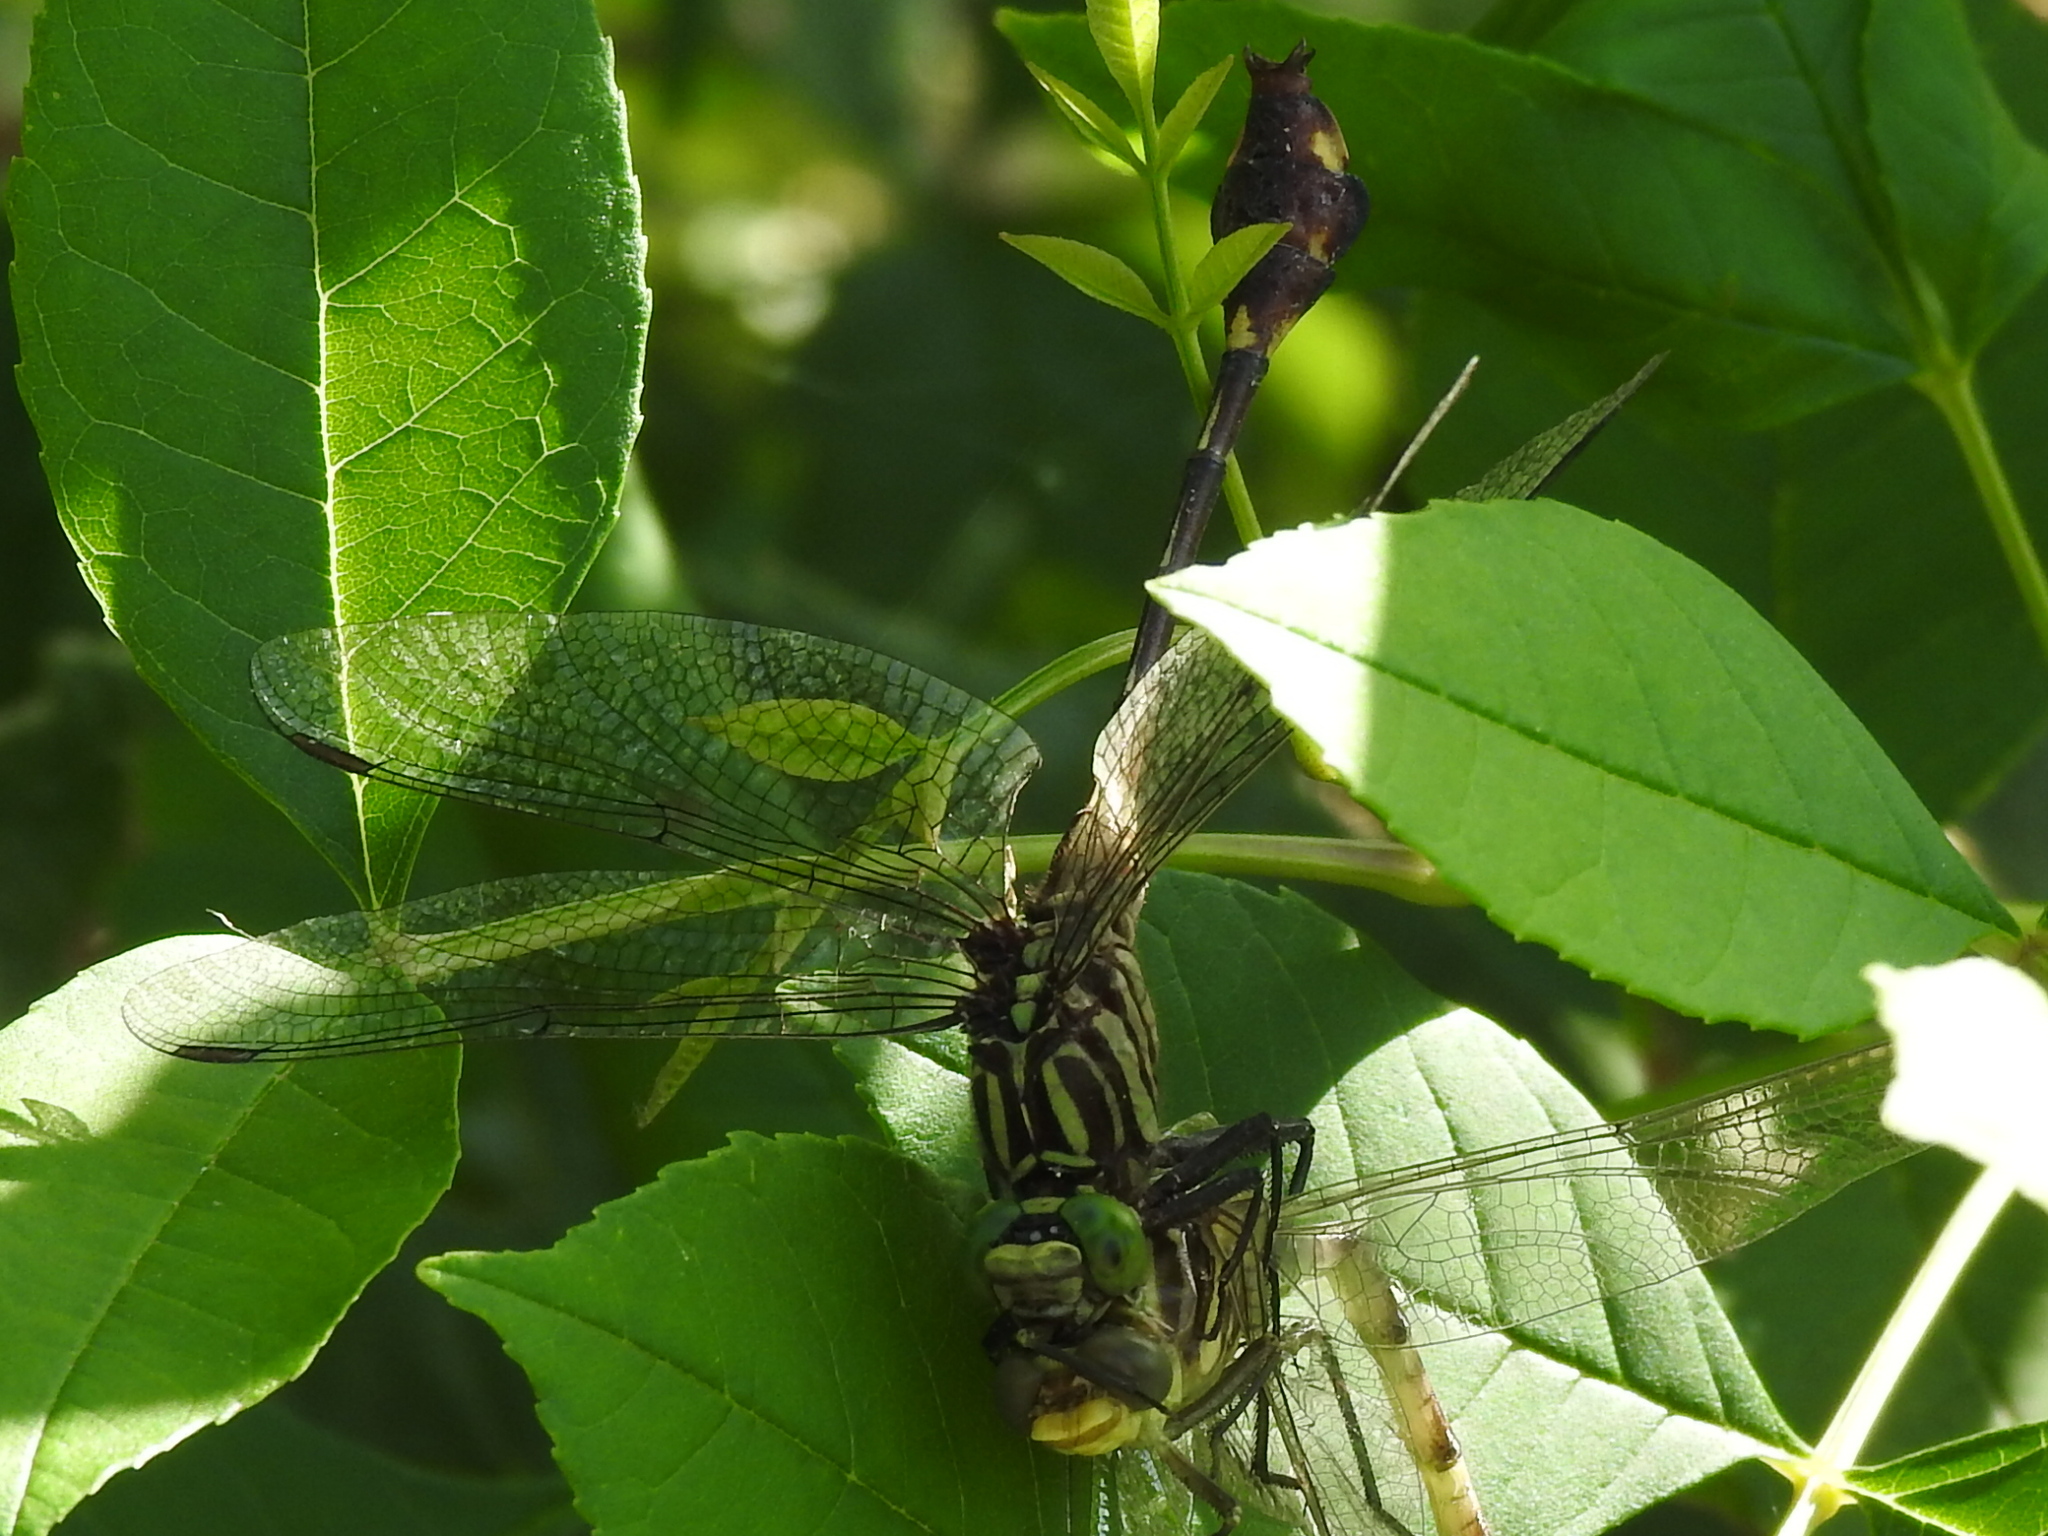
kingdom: Animalia
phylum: Arthropoda
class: Insecta
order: Odonata
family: Gomphidae
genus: Gomphurus
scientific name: Gomphurus vastus
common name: Cobra clubtail
